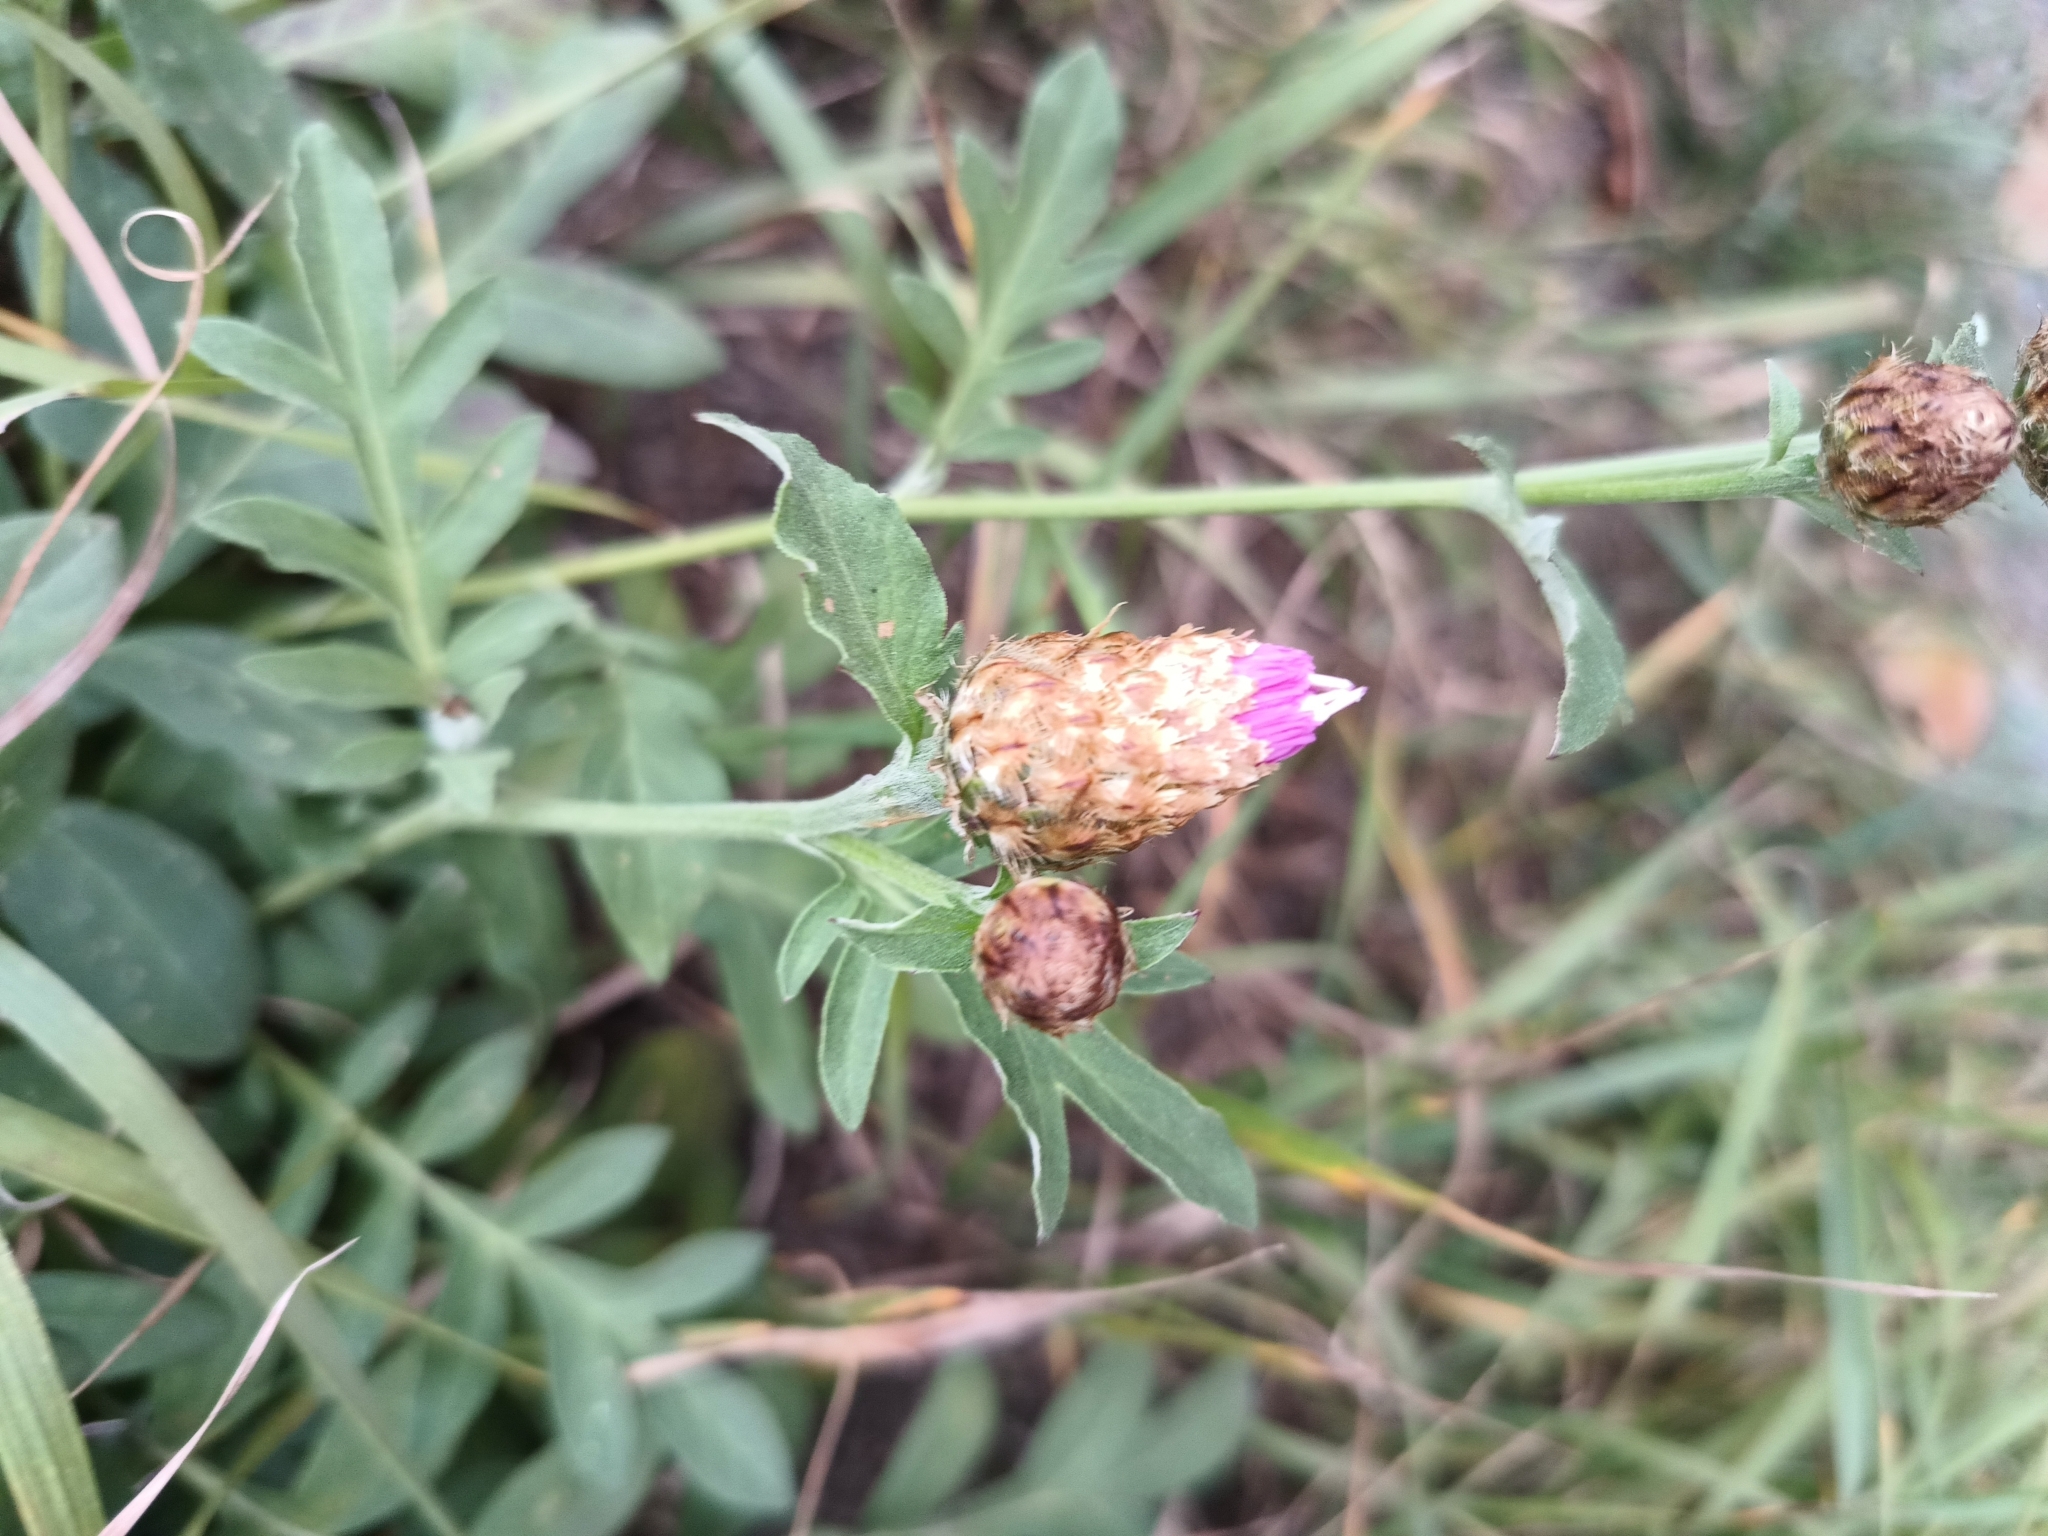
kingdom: Plantae
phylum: Tracheophyta
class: Magnoliopsida
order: Asterales
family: Asteraceae
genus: Psephellus
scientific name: Psephellus dealbatus
